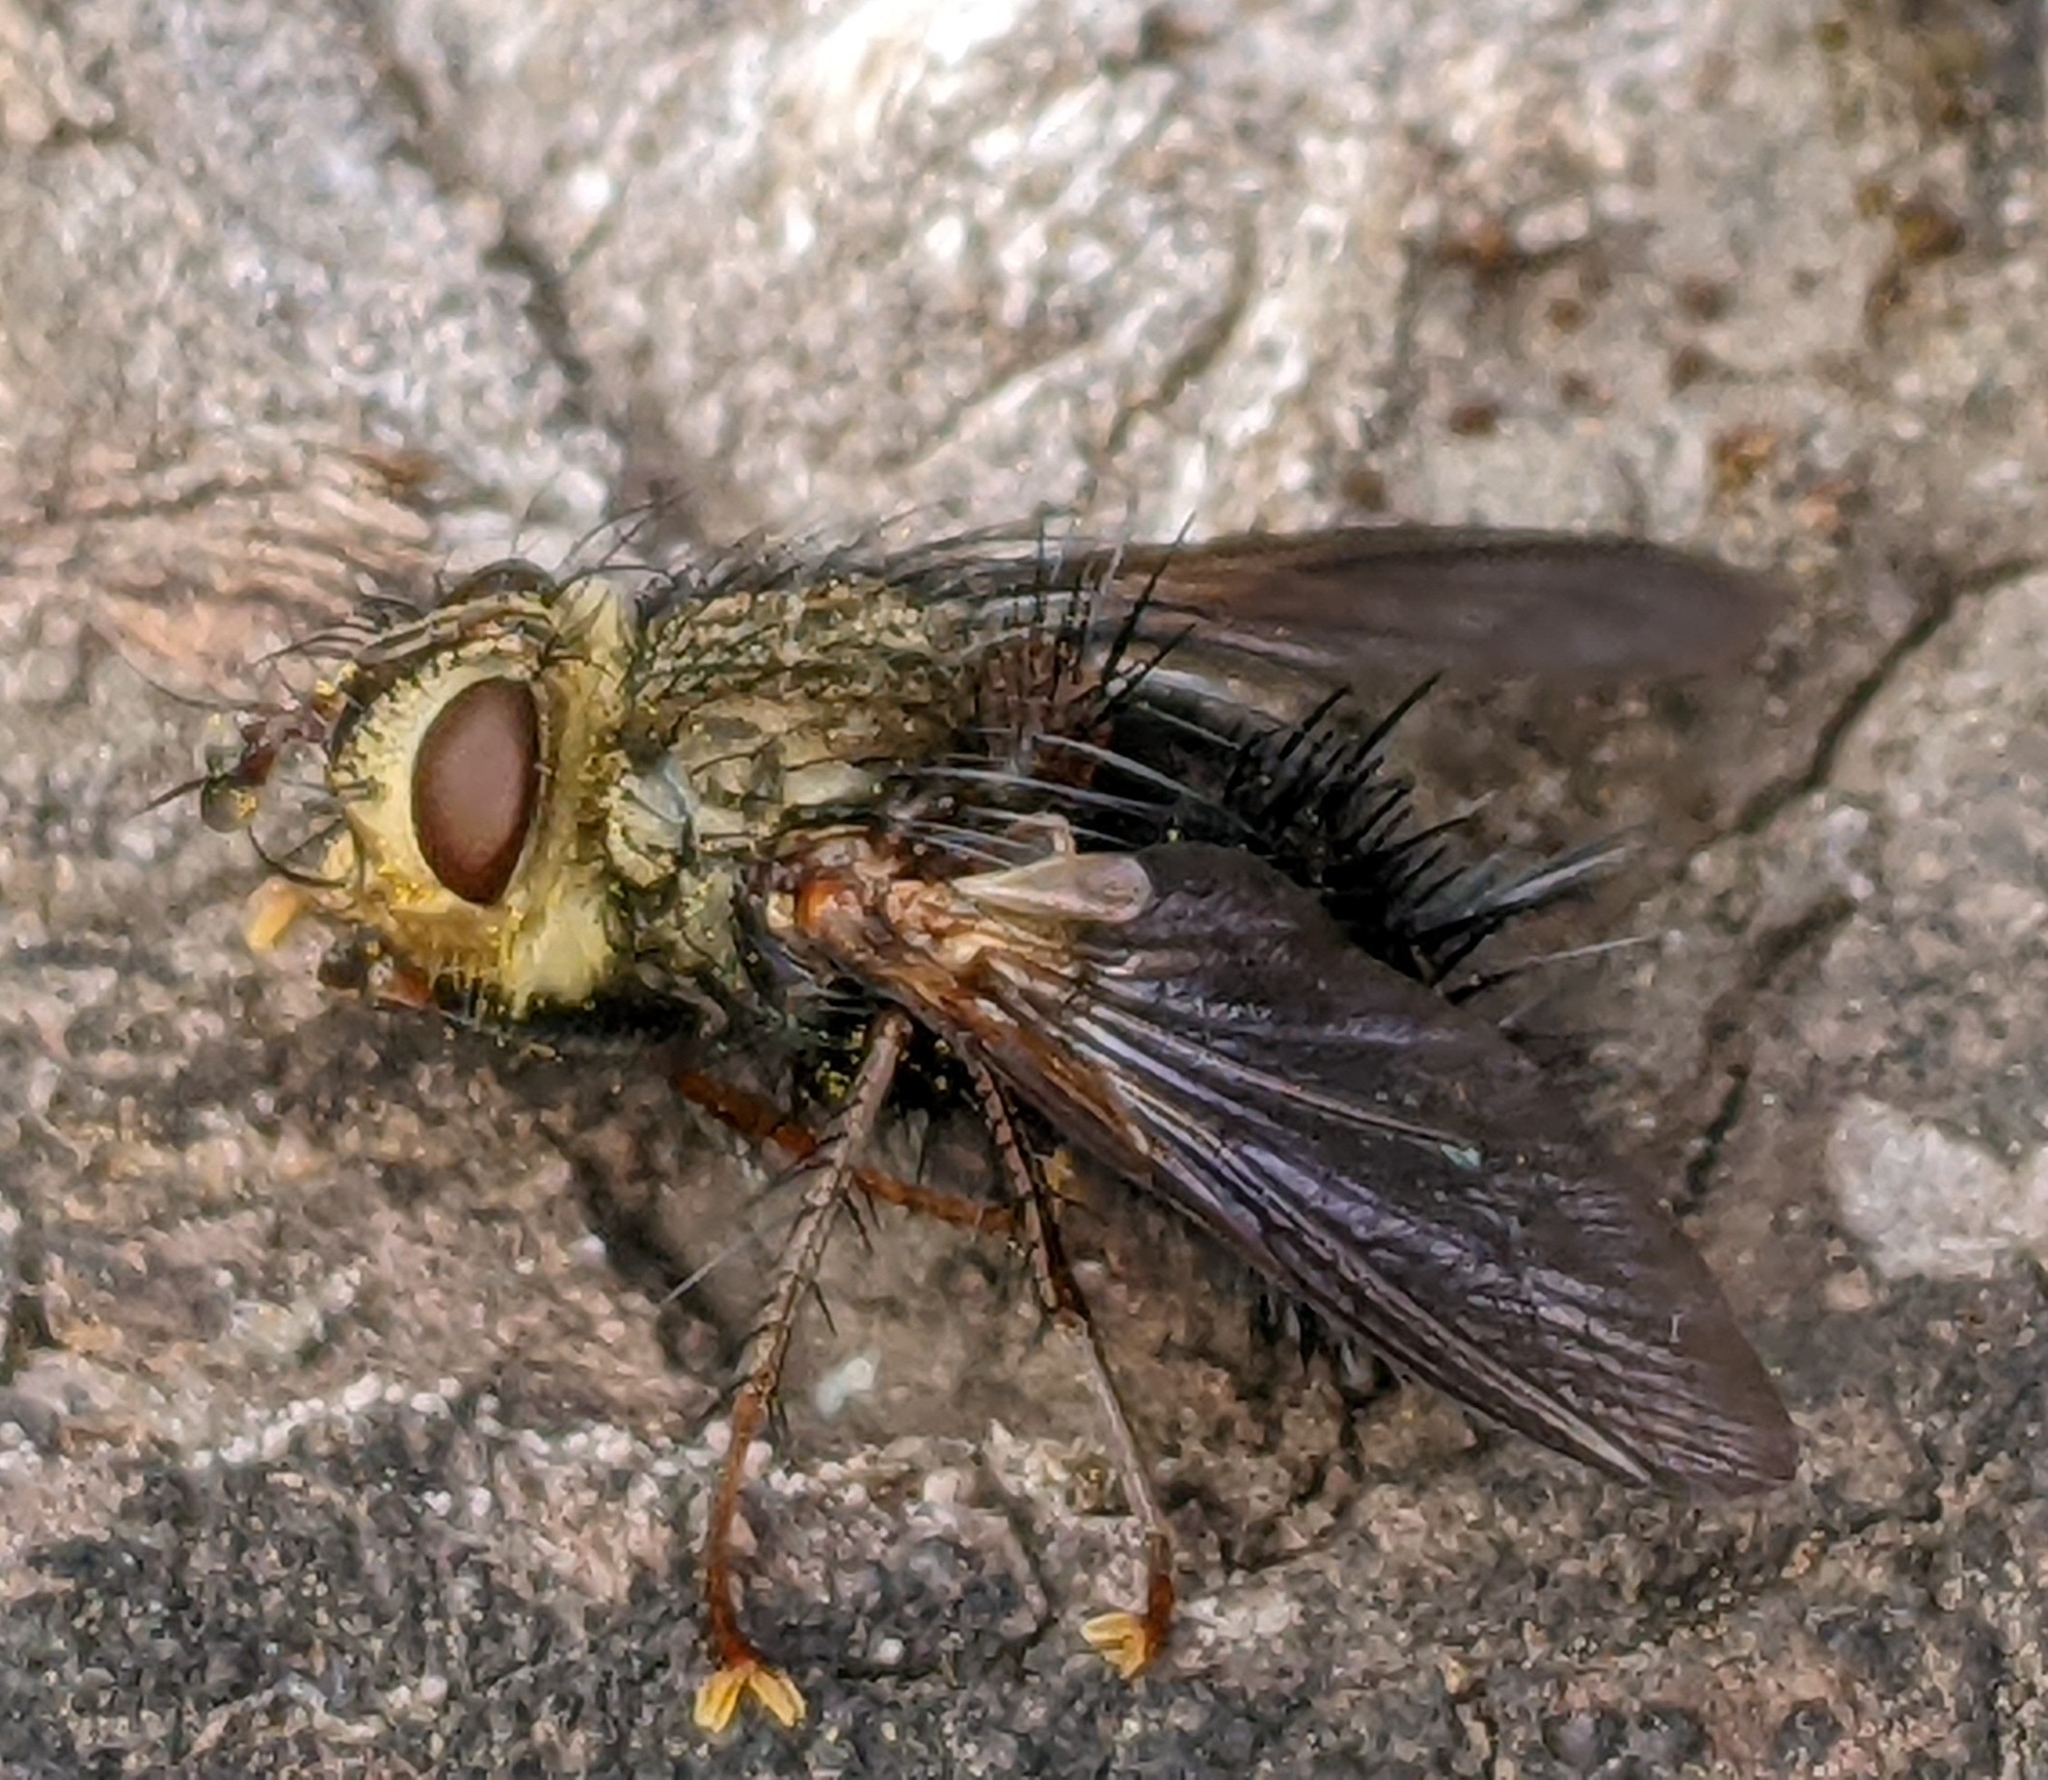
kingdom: Animalia
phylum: Arthropoda
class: Insecta
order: Diptera
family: Tachinidae
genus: Epalpus
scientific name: Epalpus signifer
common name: Early tachinid fly
